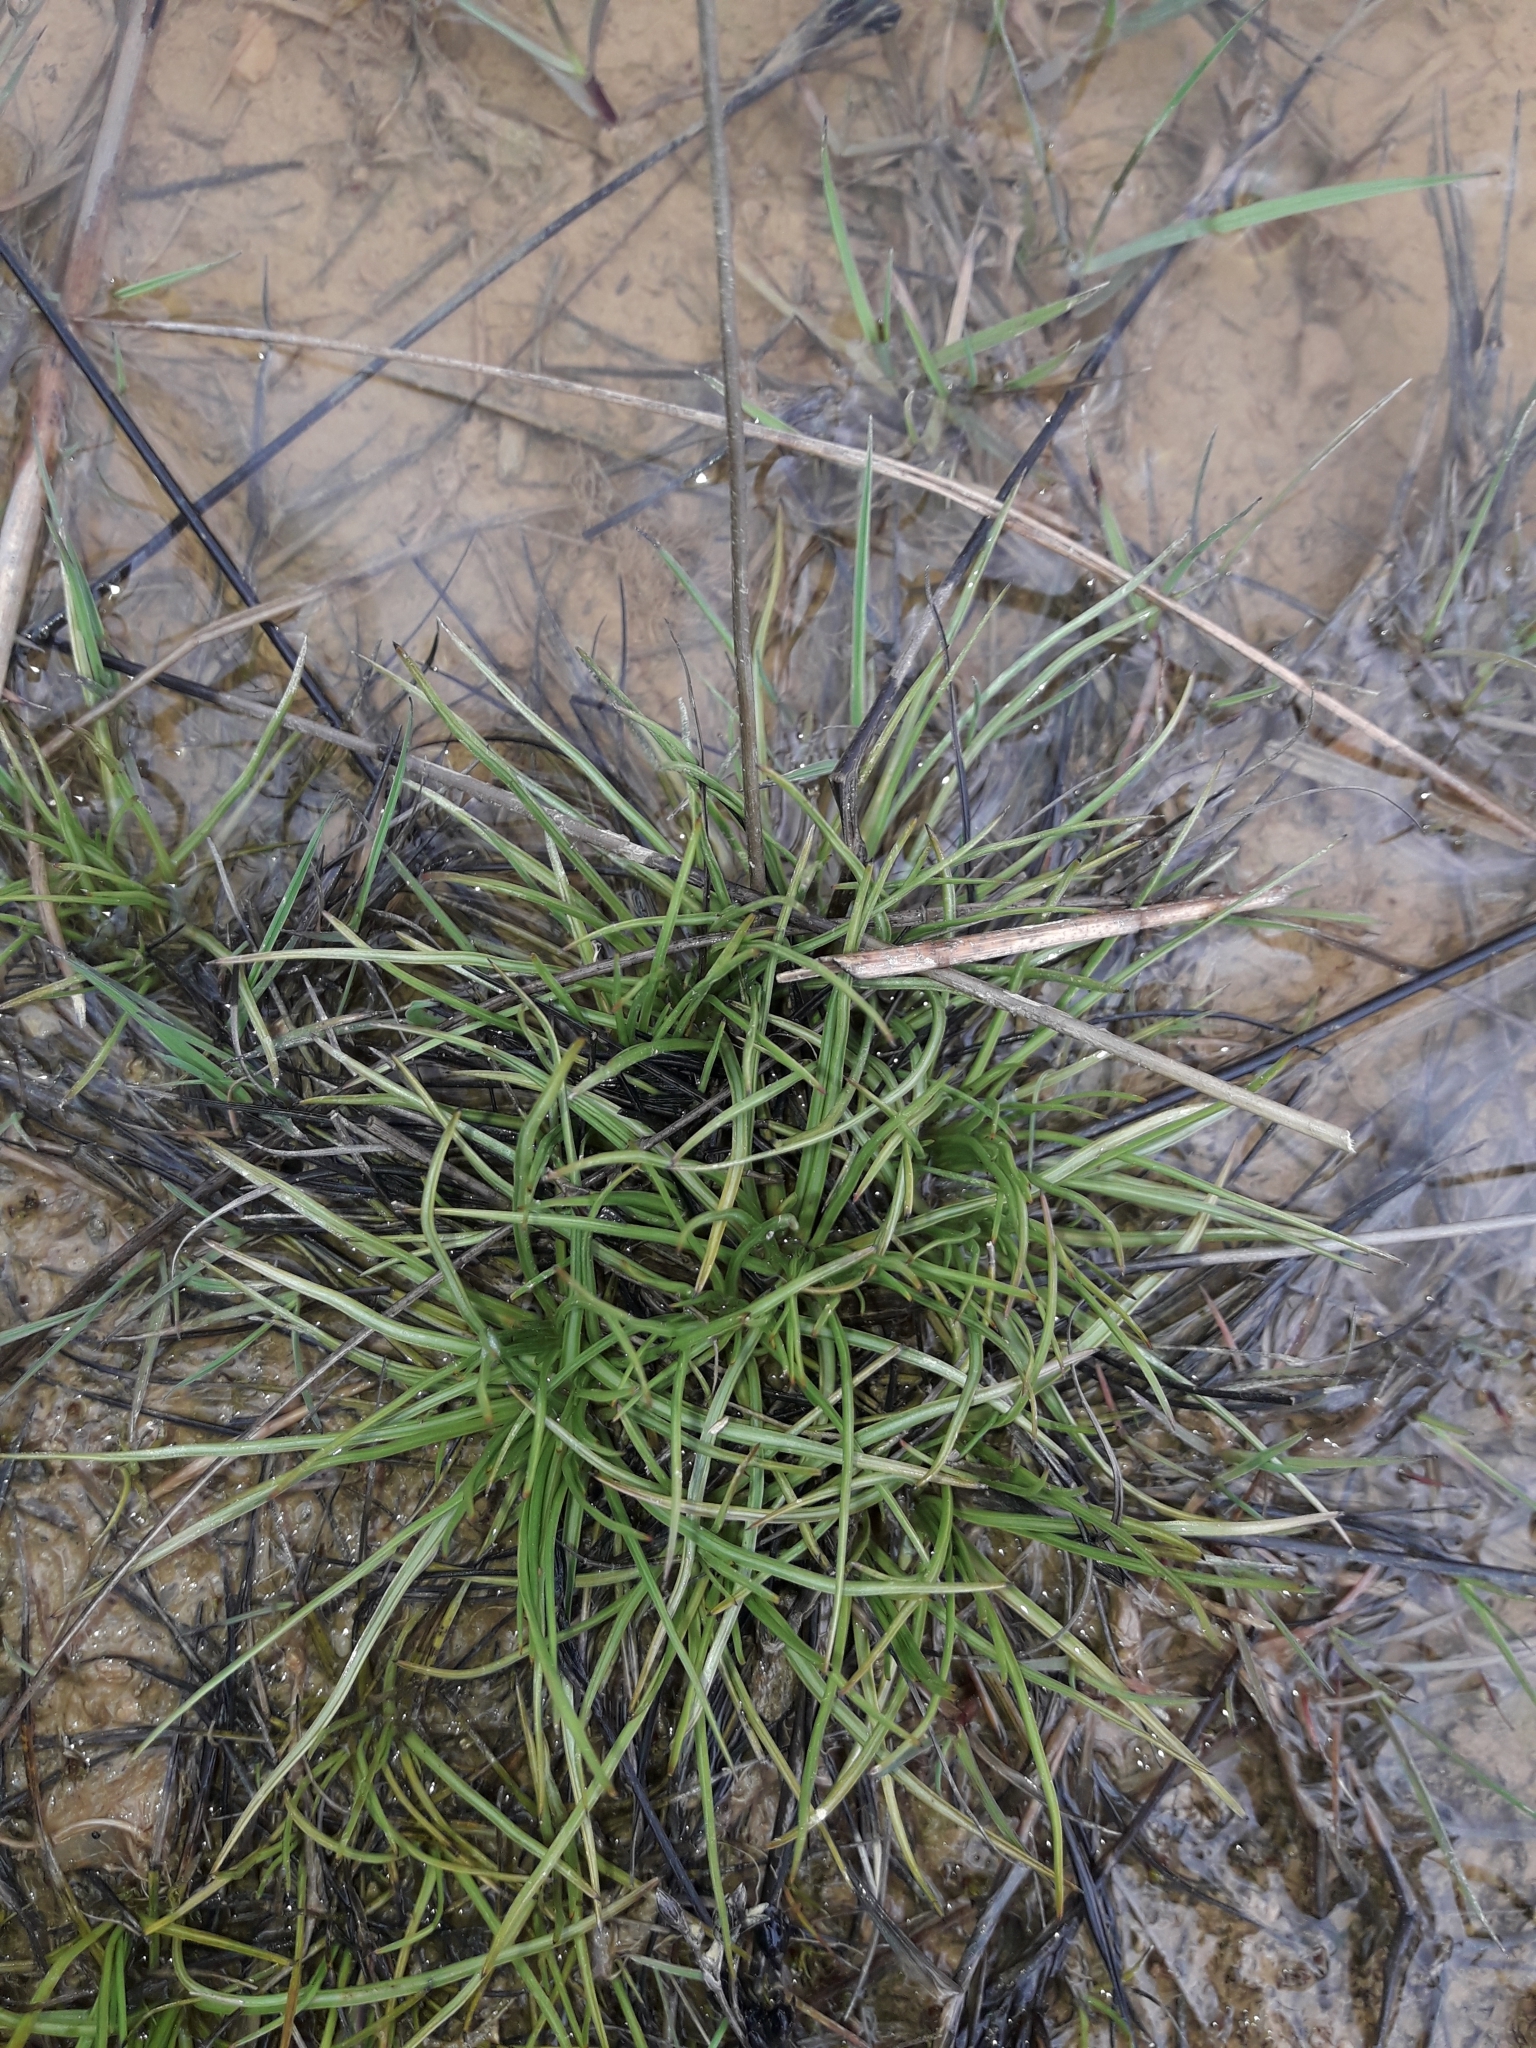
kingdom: Plantae
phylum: Tracheophyta
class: Liliopsida
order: Poales
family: Juncaceae
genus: Juncus
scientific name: Juncus squarrosus
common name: Heath rush
